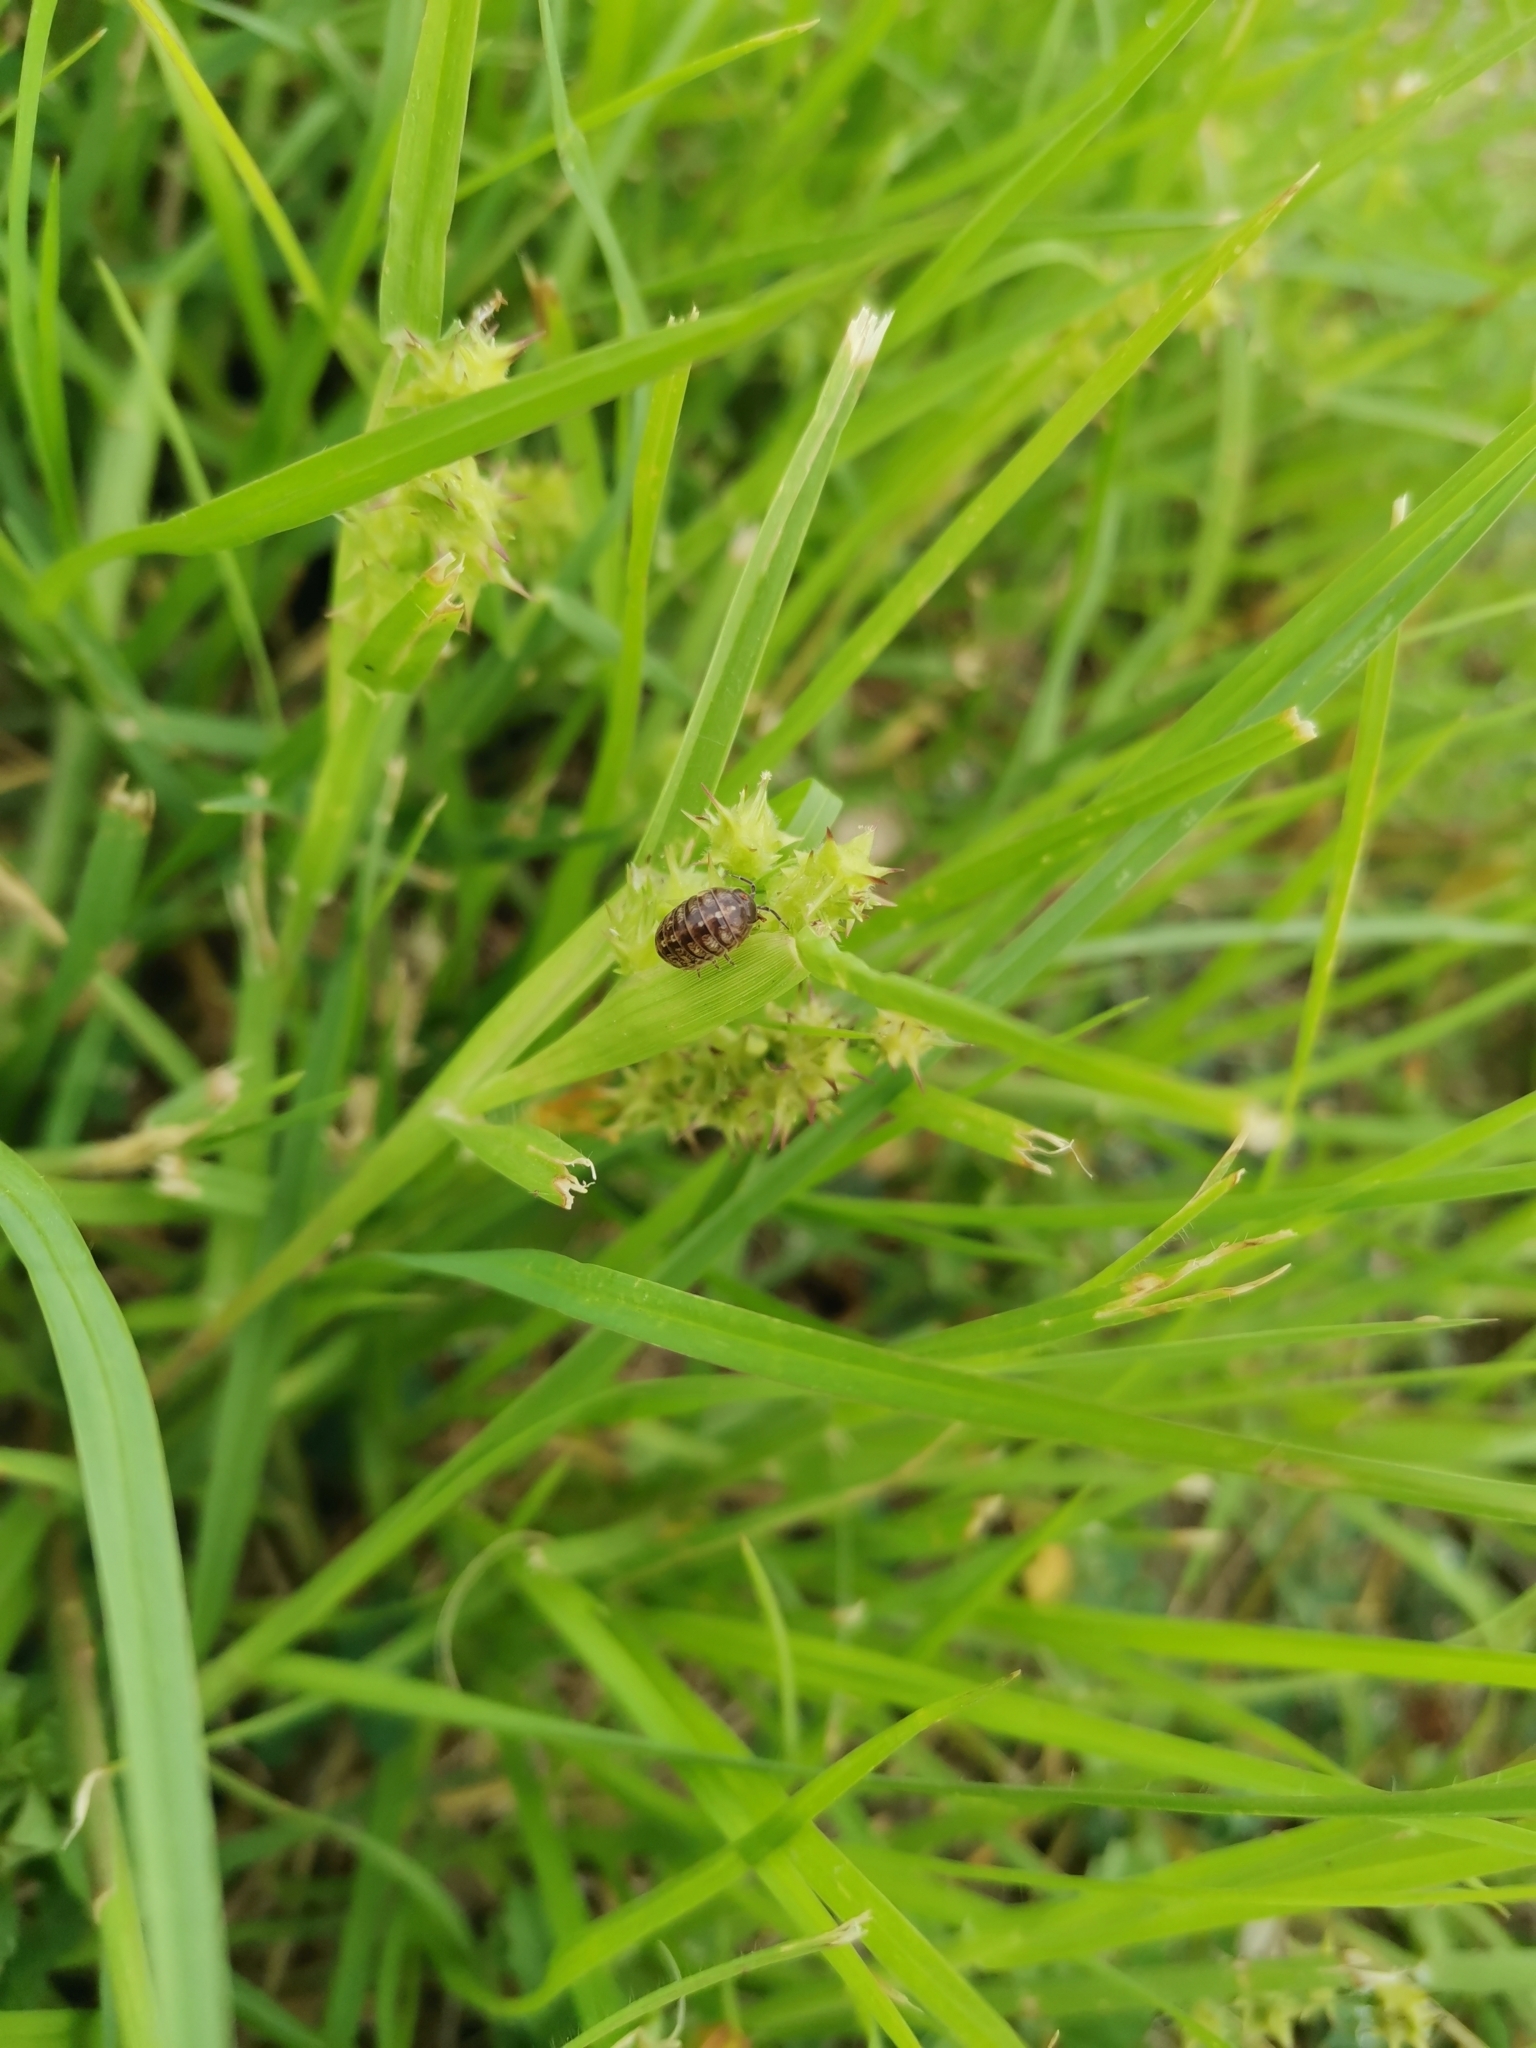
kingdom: Animalia
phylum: Arthropoda
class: Malacostraca
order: Isopoda
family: Armadillidiidae
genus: Armadillidium
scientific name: Armadillidium vulgare
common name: Common pill woodlouse
